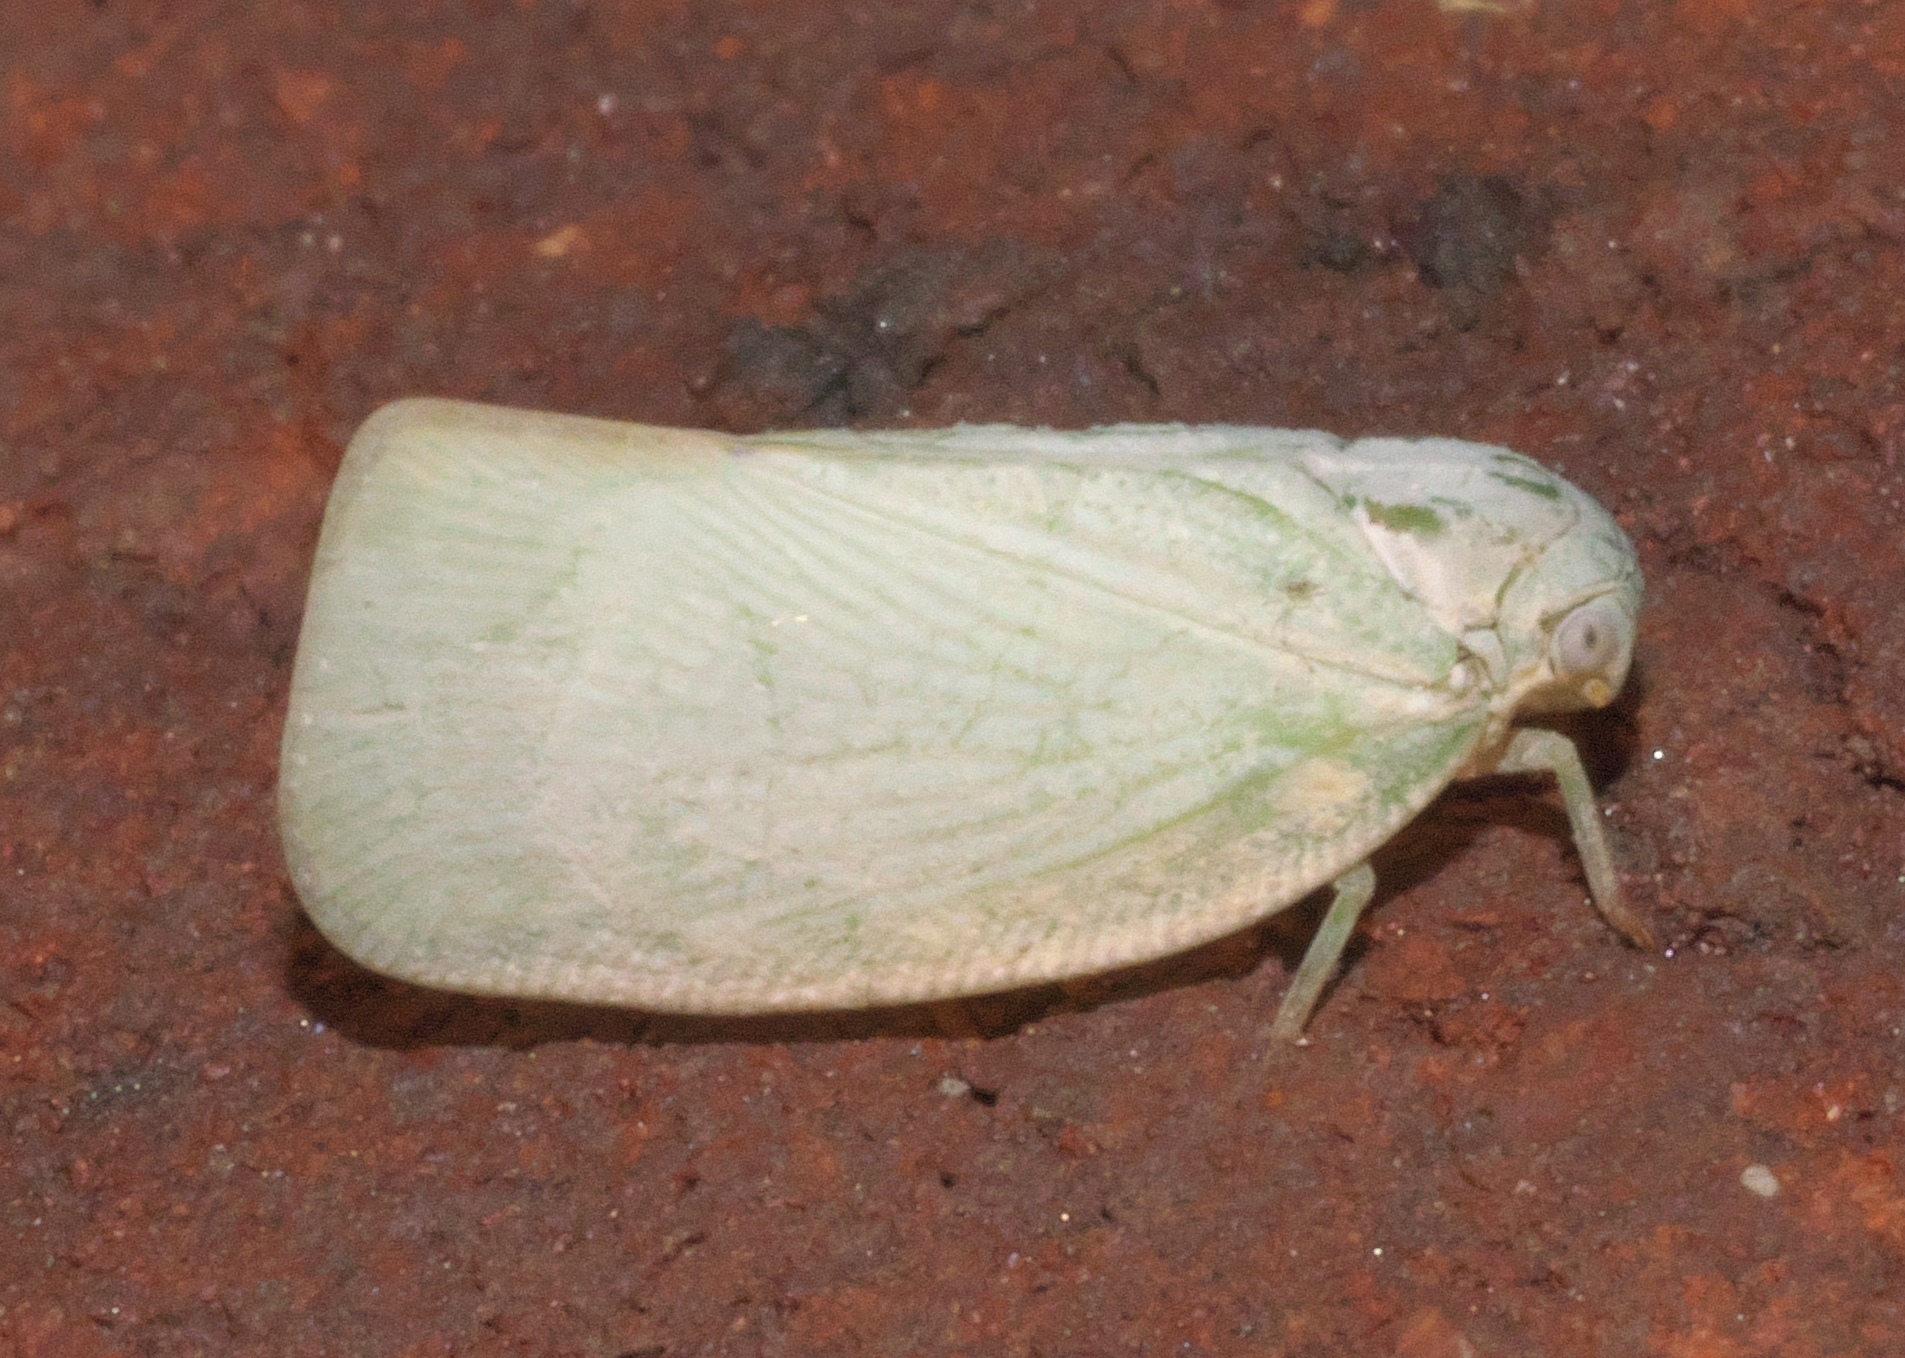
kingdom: Animalia
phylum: Arthropoda
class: Insecta
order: Hemiptera
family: Flatidae
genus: Flatormenis
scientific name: Flatormenis proxima
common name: Northern flatid planthopper
